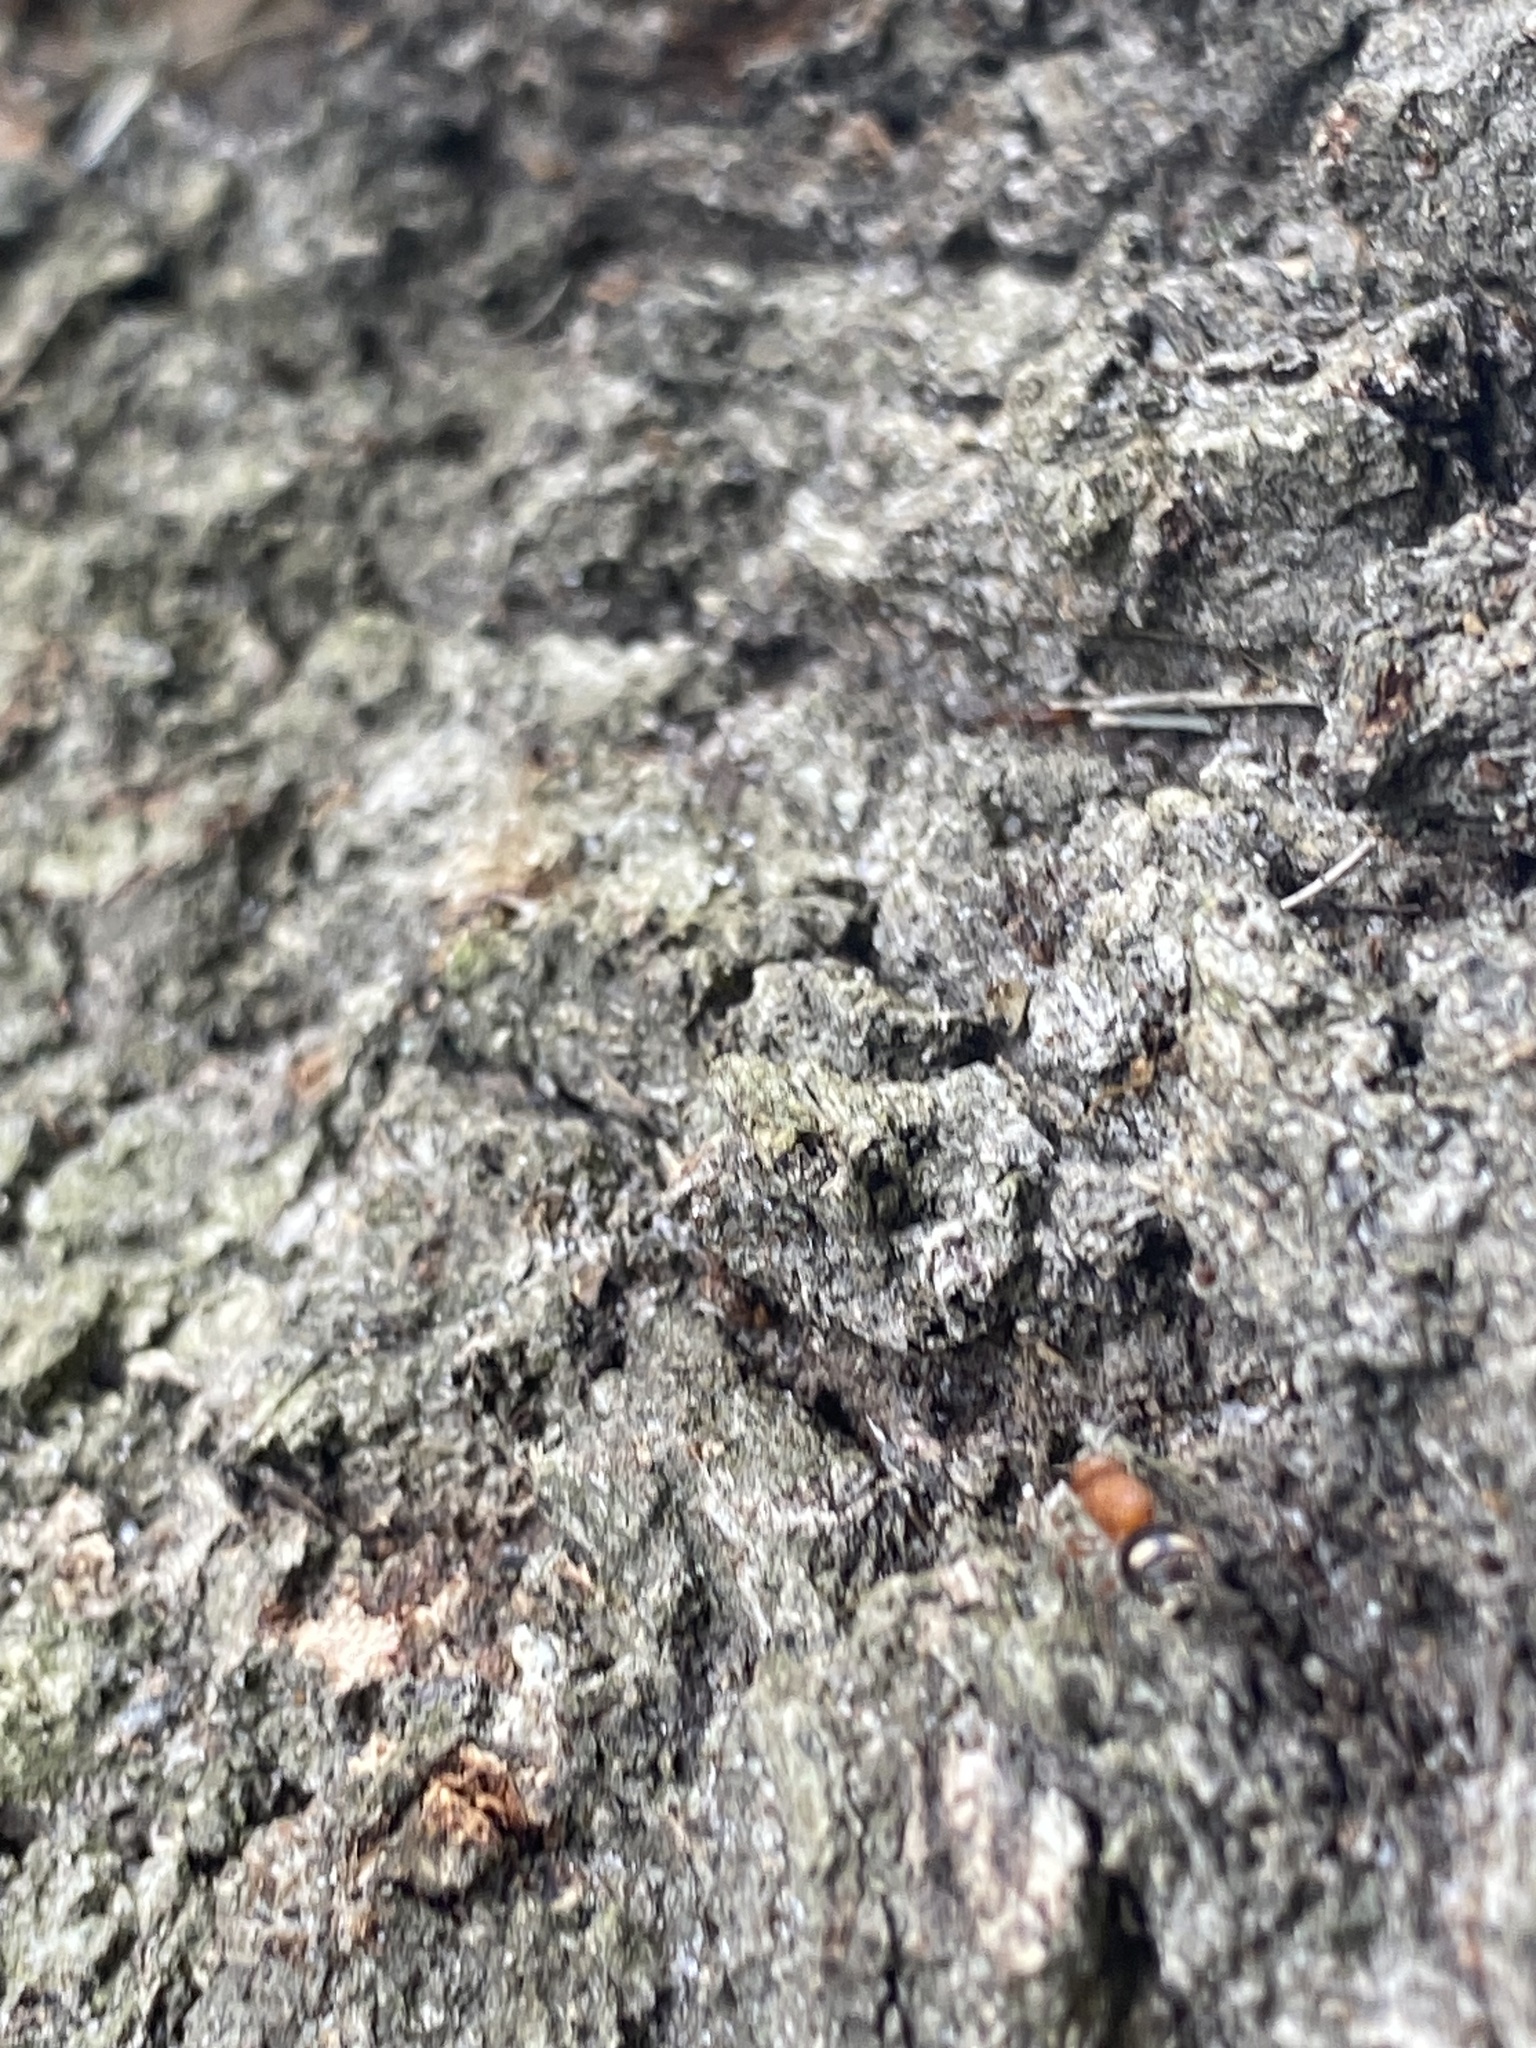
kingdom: Animalia
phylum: Arthropoda
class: Insecta
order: Hymenoptera
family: Mutillidae
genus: Dasymutilla
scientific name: Dasymutilla
